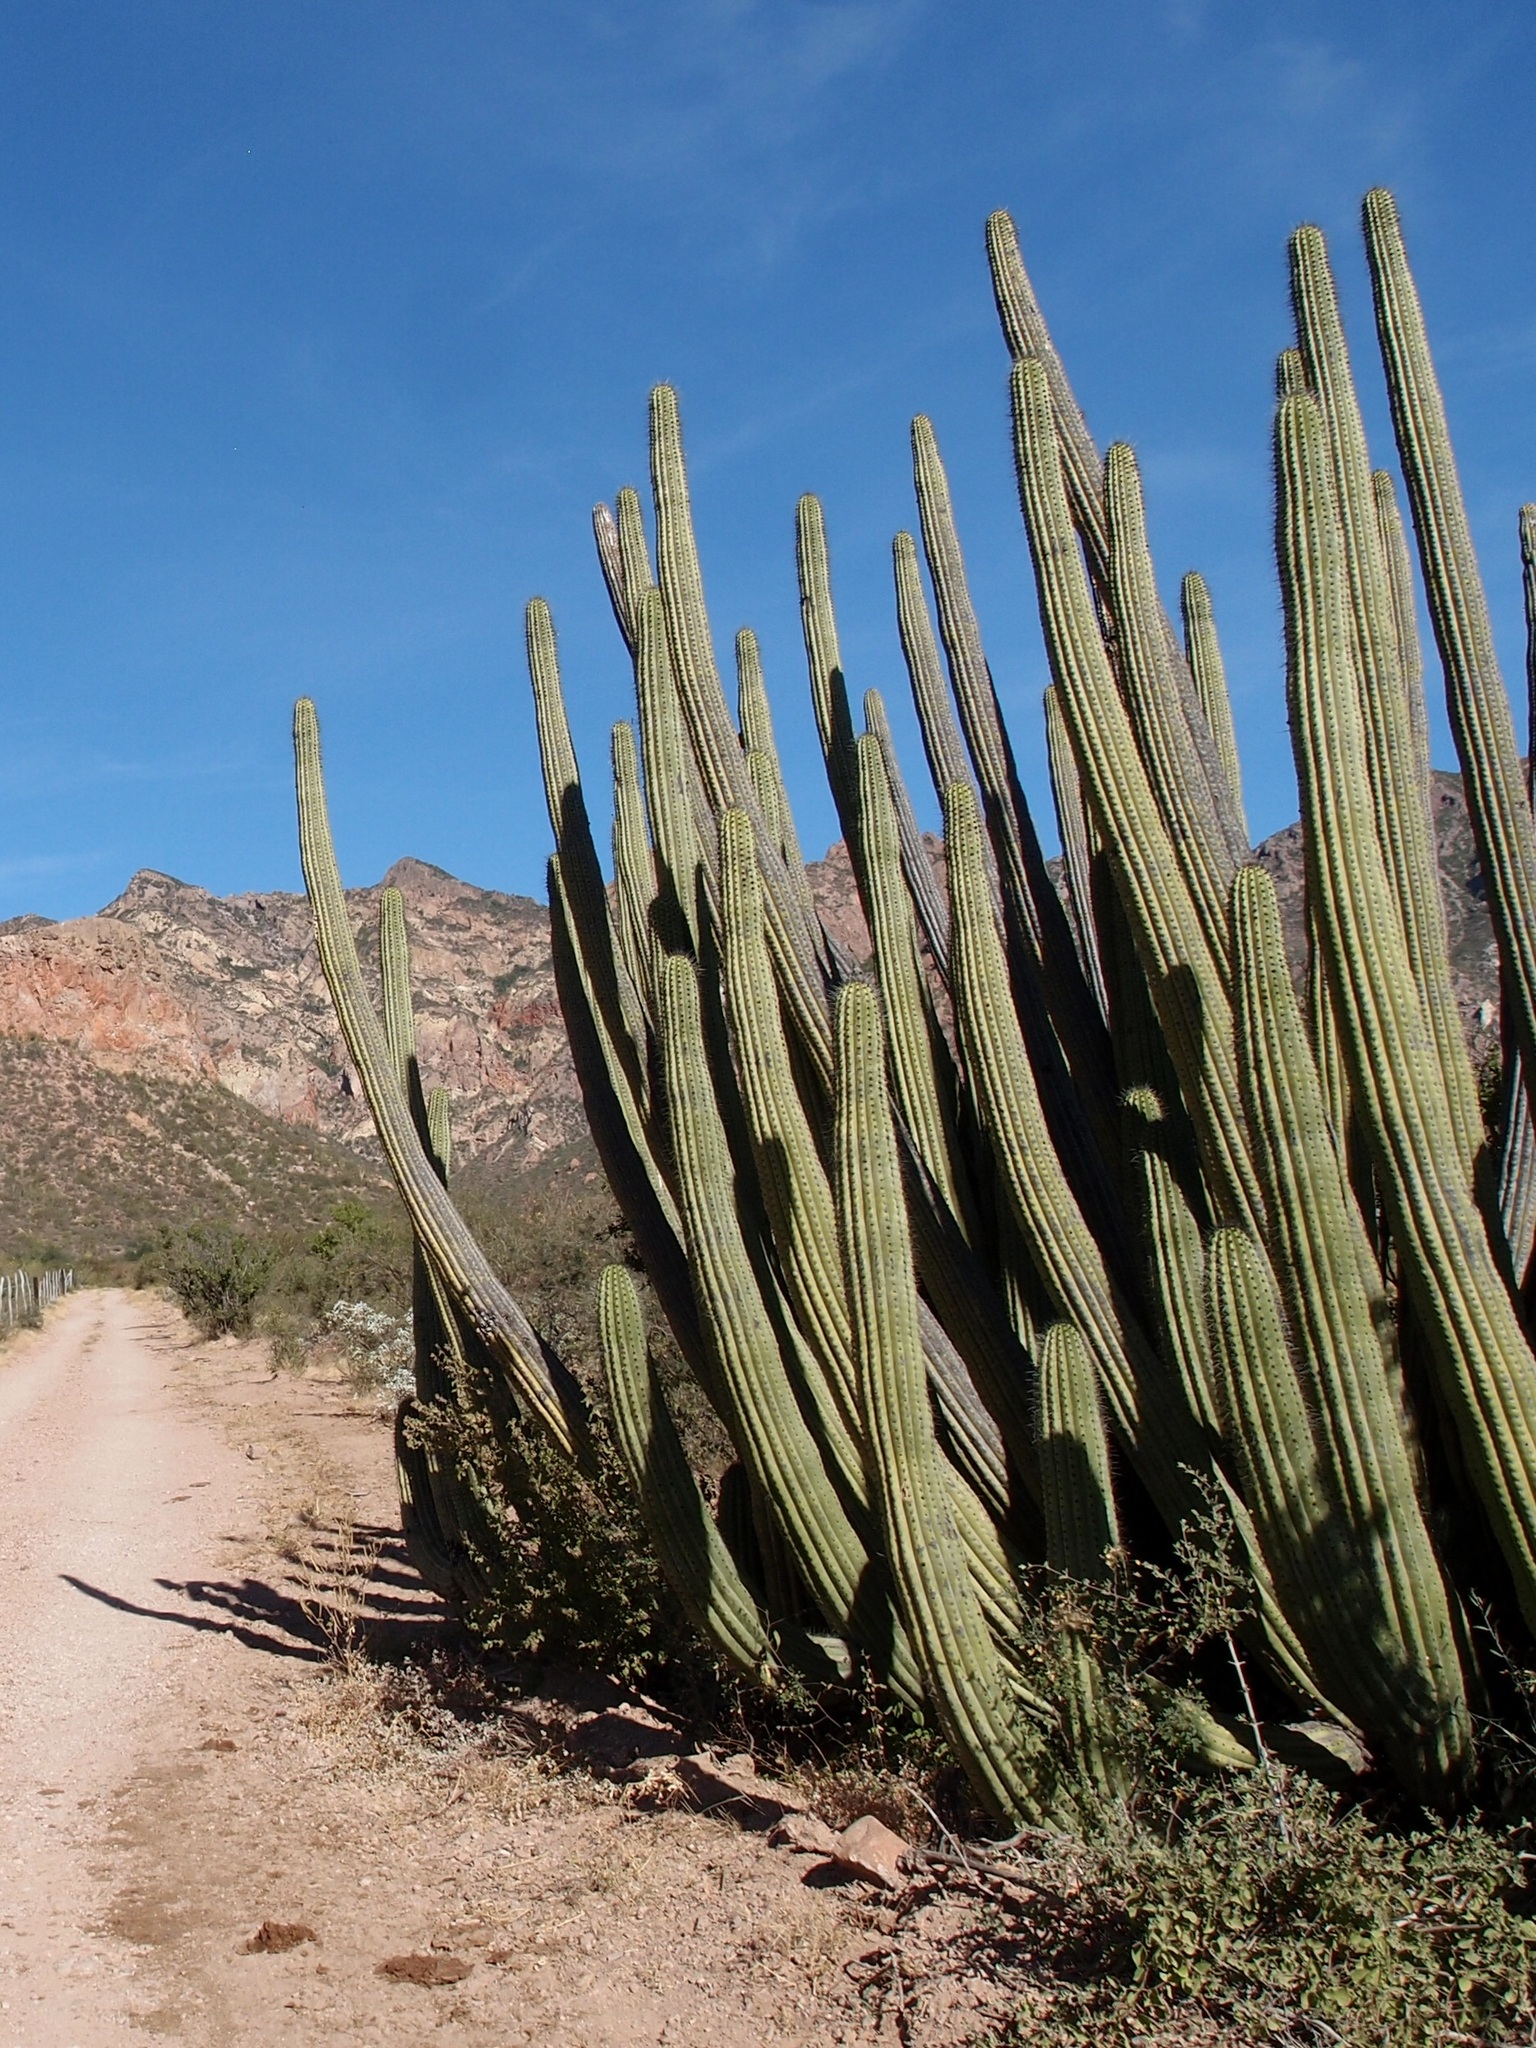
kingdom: Plantae
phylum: Tracheophyta
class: Magnoliopsida
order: Caryophyllales
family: Cactaceae
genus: Stenocereus
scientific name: Stenocereus thurberi
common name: Organ pipe cactus
